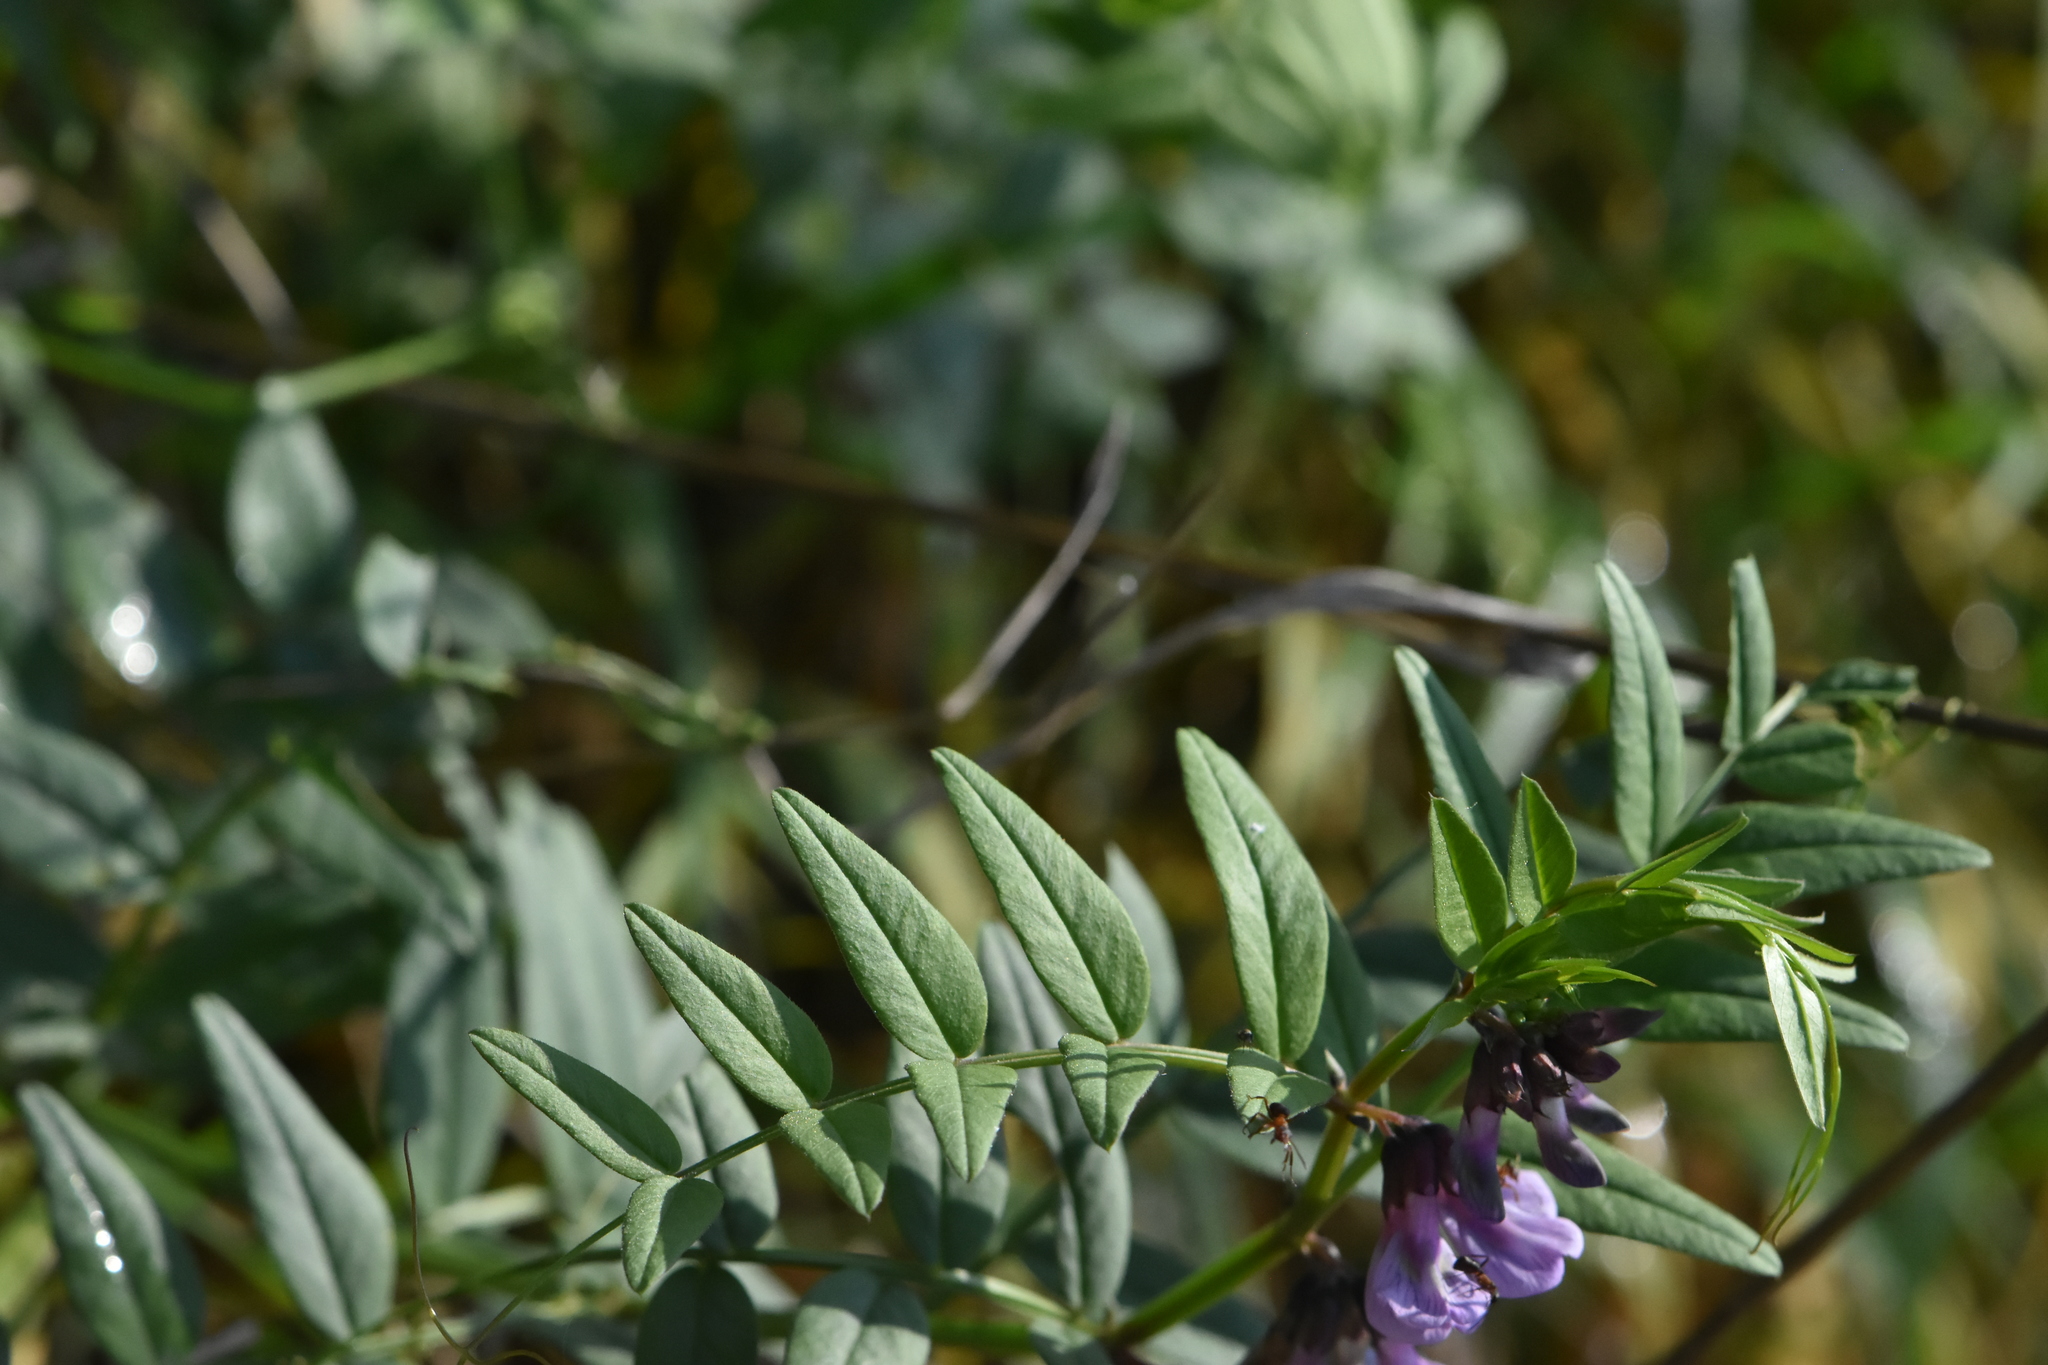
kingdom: Plantae
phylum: Tracheophyta
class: Magnoliopsida
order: Fabales
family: Fabaceae
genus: Vicia
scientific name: Vicia sepium
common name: Bush vetch
